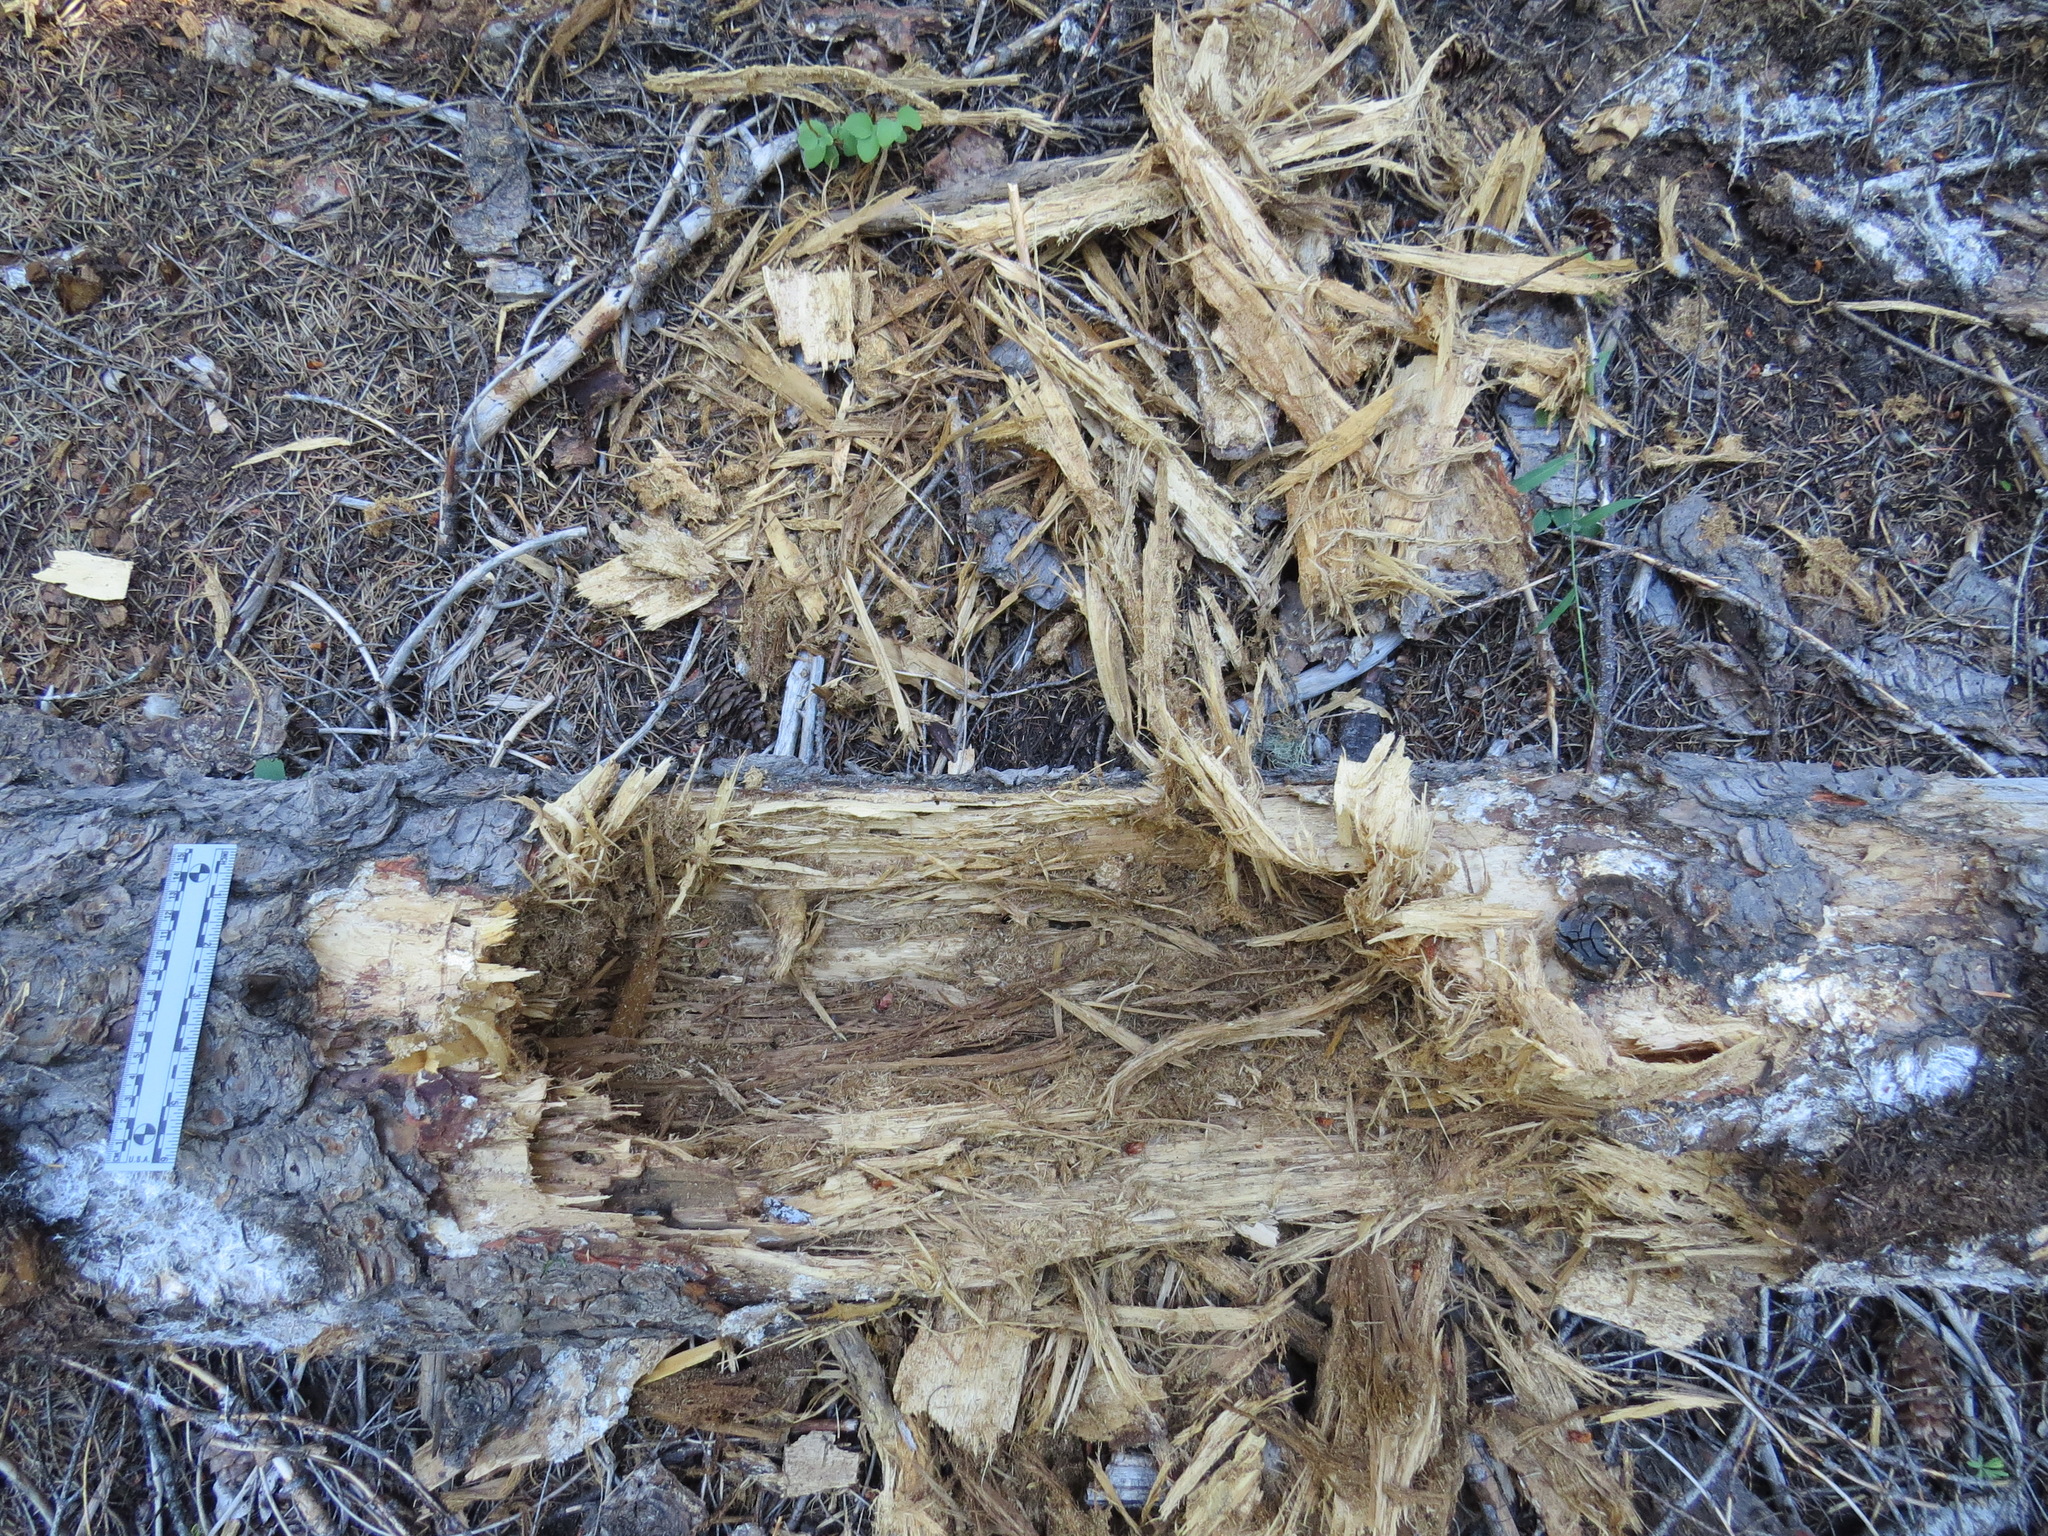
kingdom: Animalia
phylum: Chordata
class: Mammalia
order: Carnivora
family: Ursidae
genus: Ursus
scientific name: Ursus americanus
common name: American black bear
